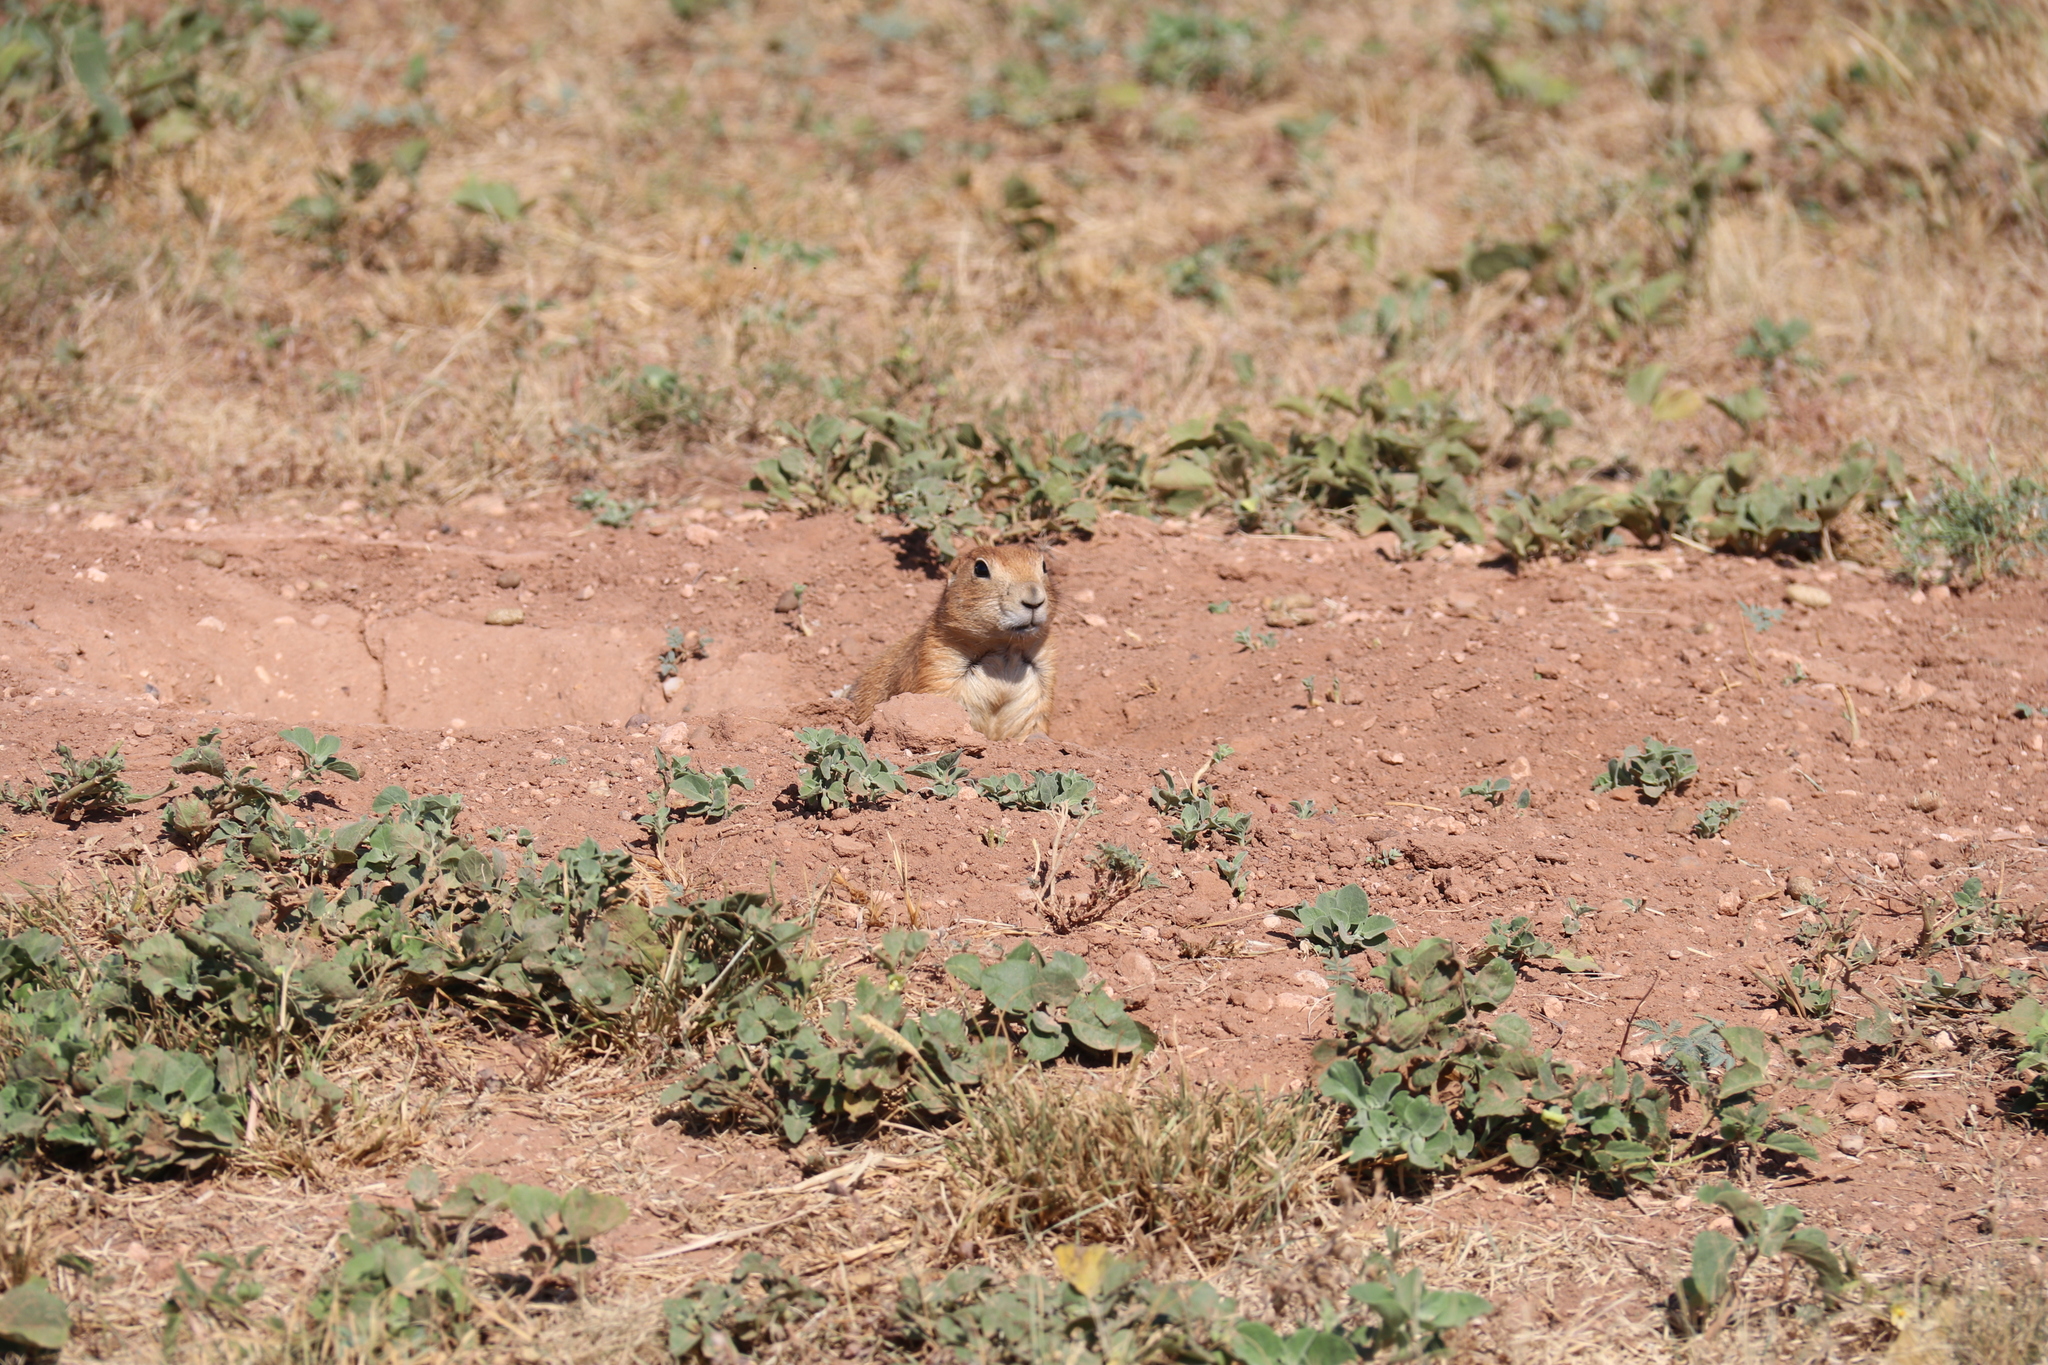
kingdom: Animalia
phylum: Chordata
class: Mammalia
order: Rodentia
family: Sciuridae
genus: Cynomys
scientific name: Cynomys ludovicianus
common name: Black-tailed prairie dog
